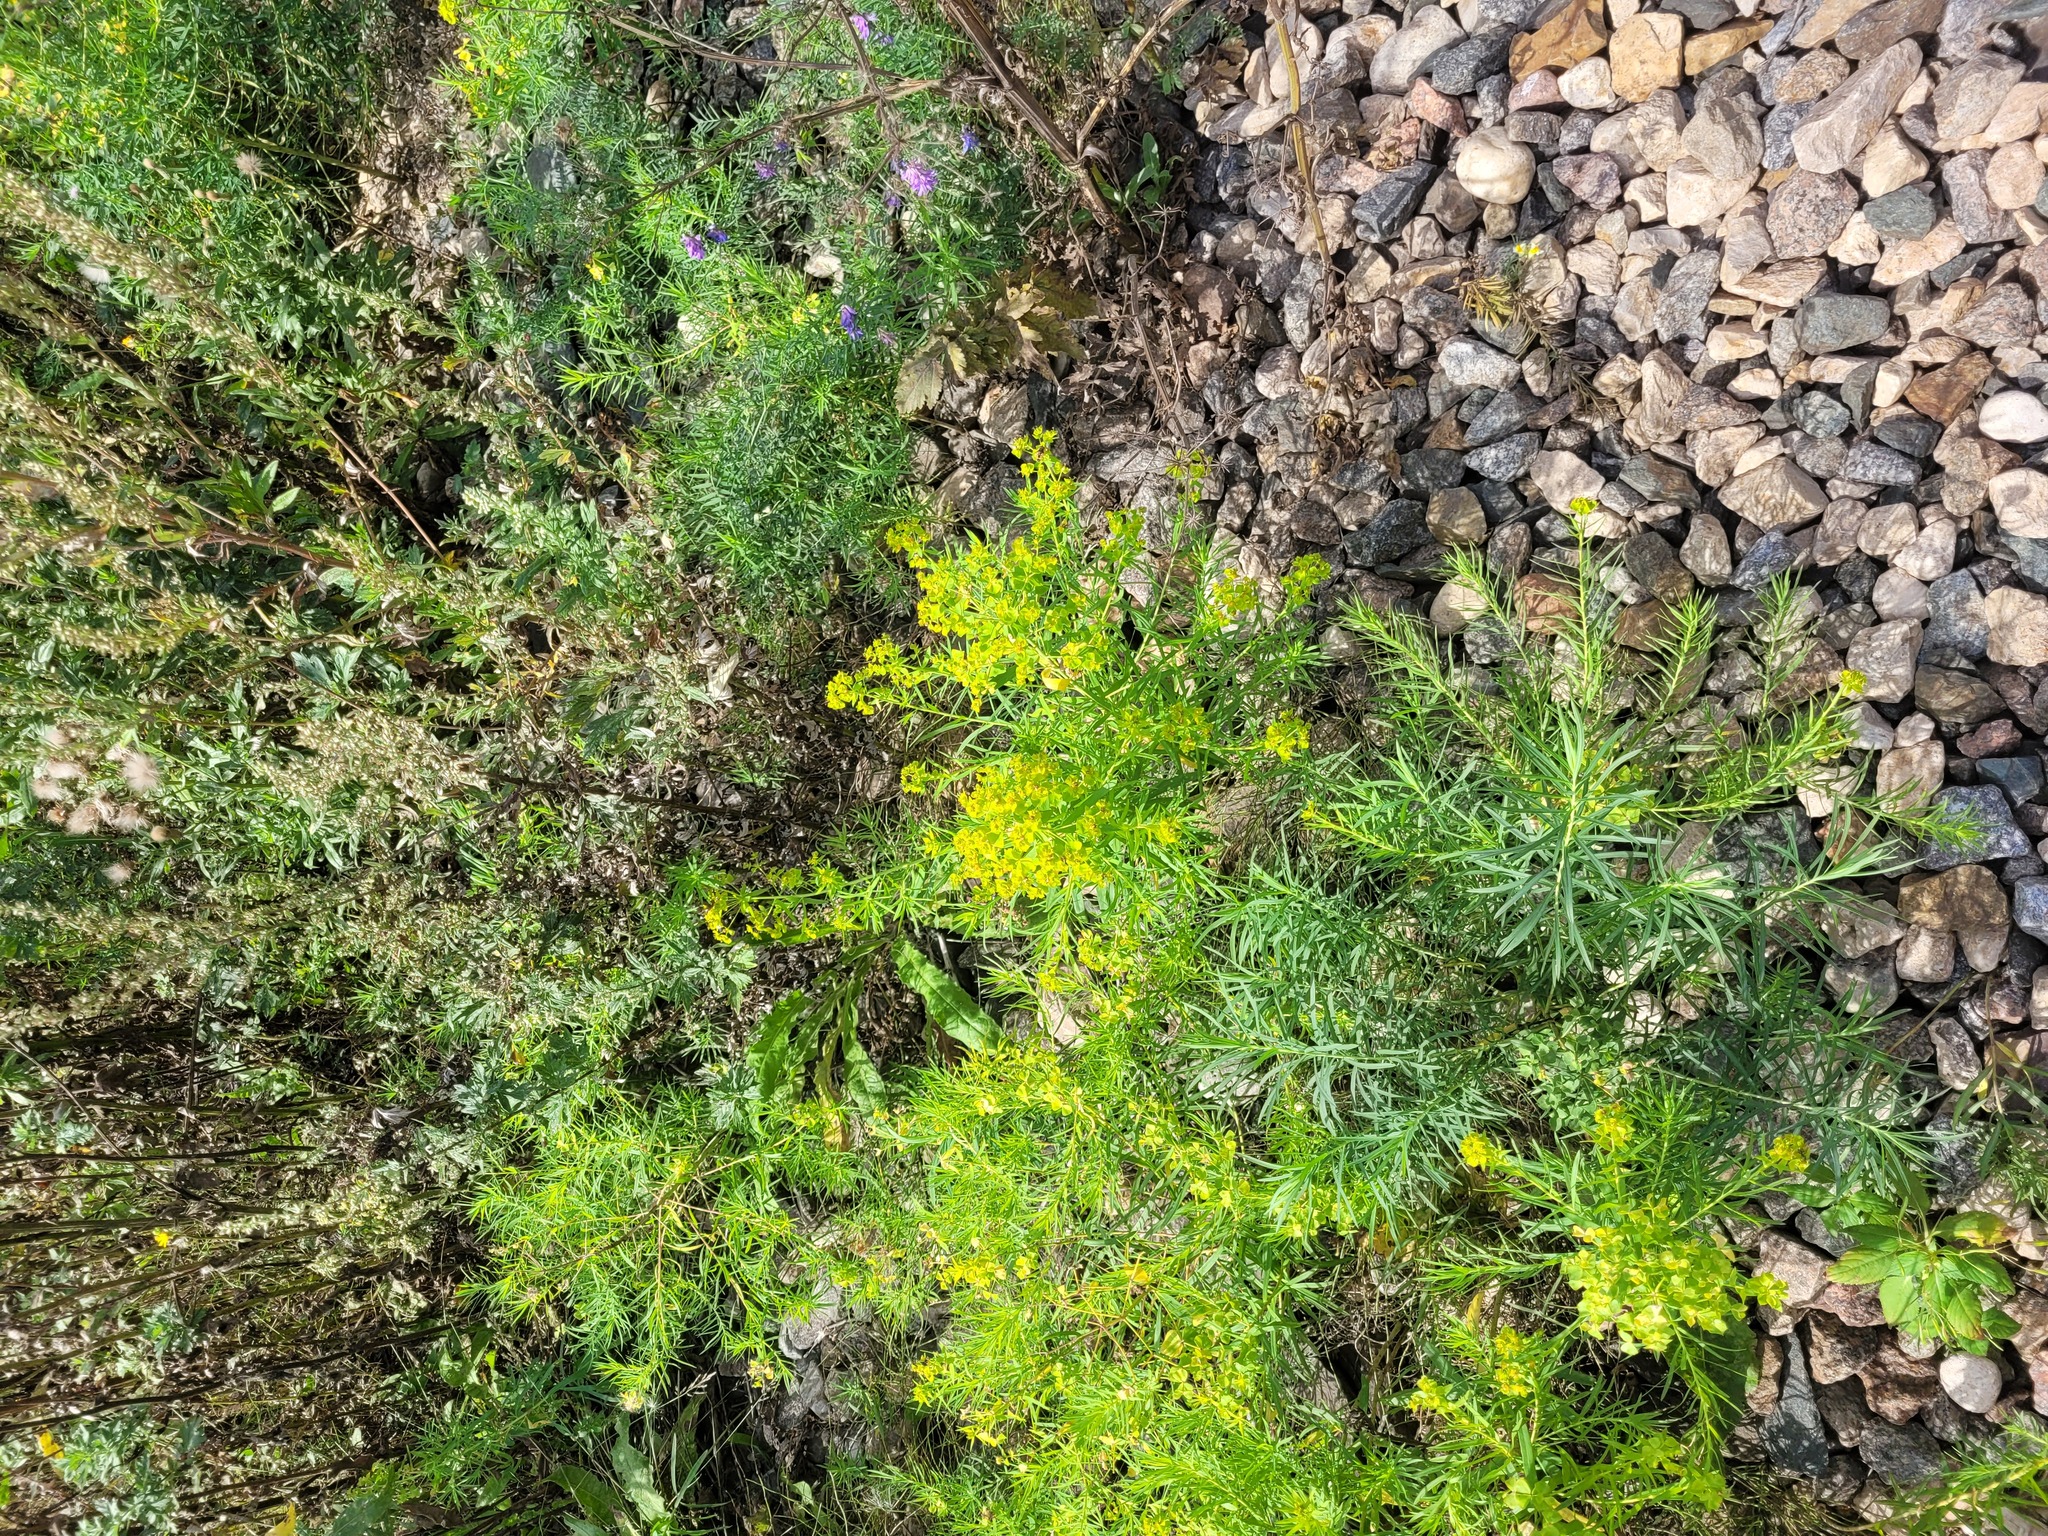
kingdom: Plantae
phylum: Tracheophyta
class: Magnoliopsida
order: Malpighiales
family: Euphorbiaceae
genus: Euphorbia
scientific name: Euphorbia virgata
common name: Leafy spurge
